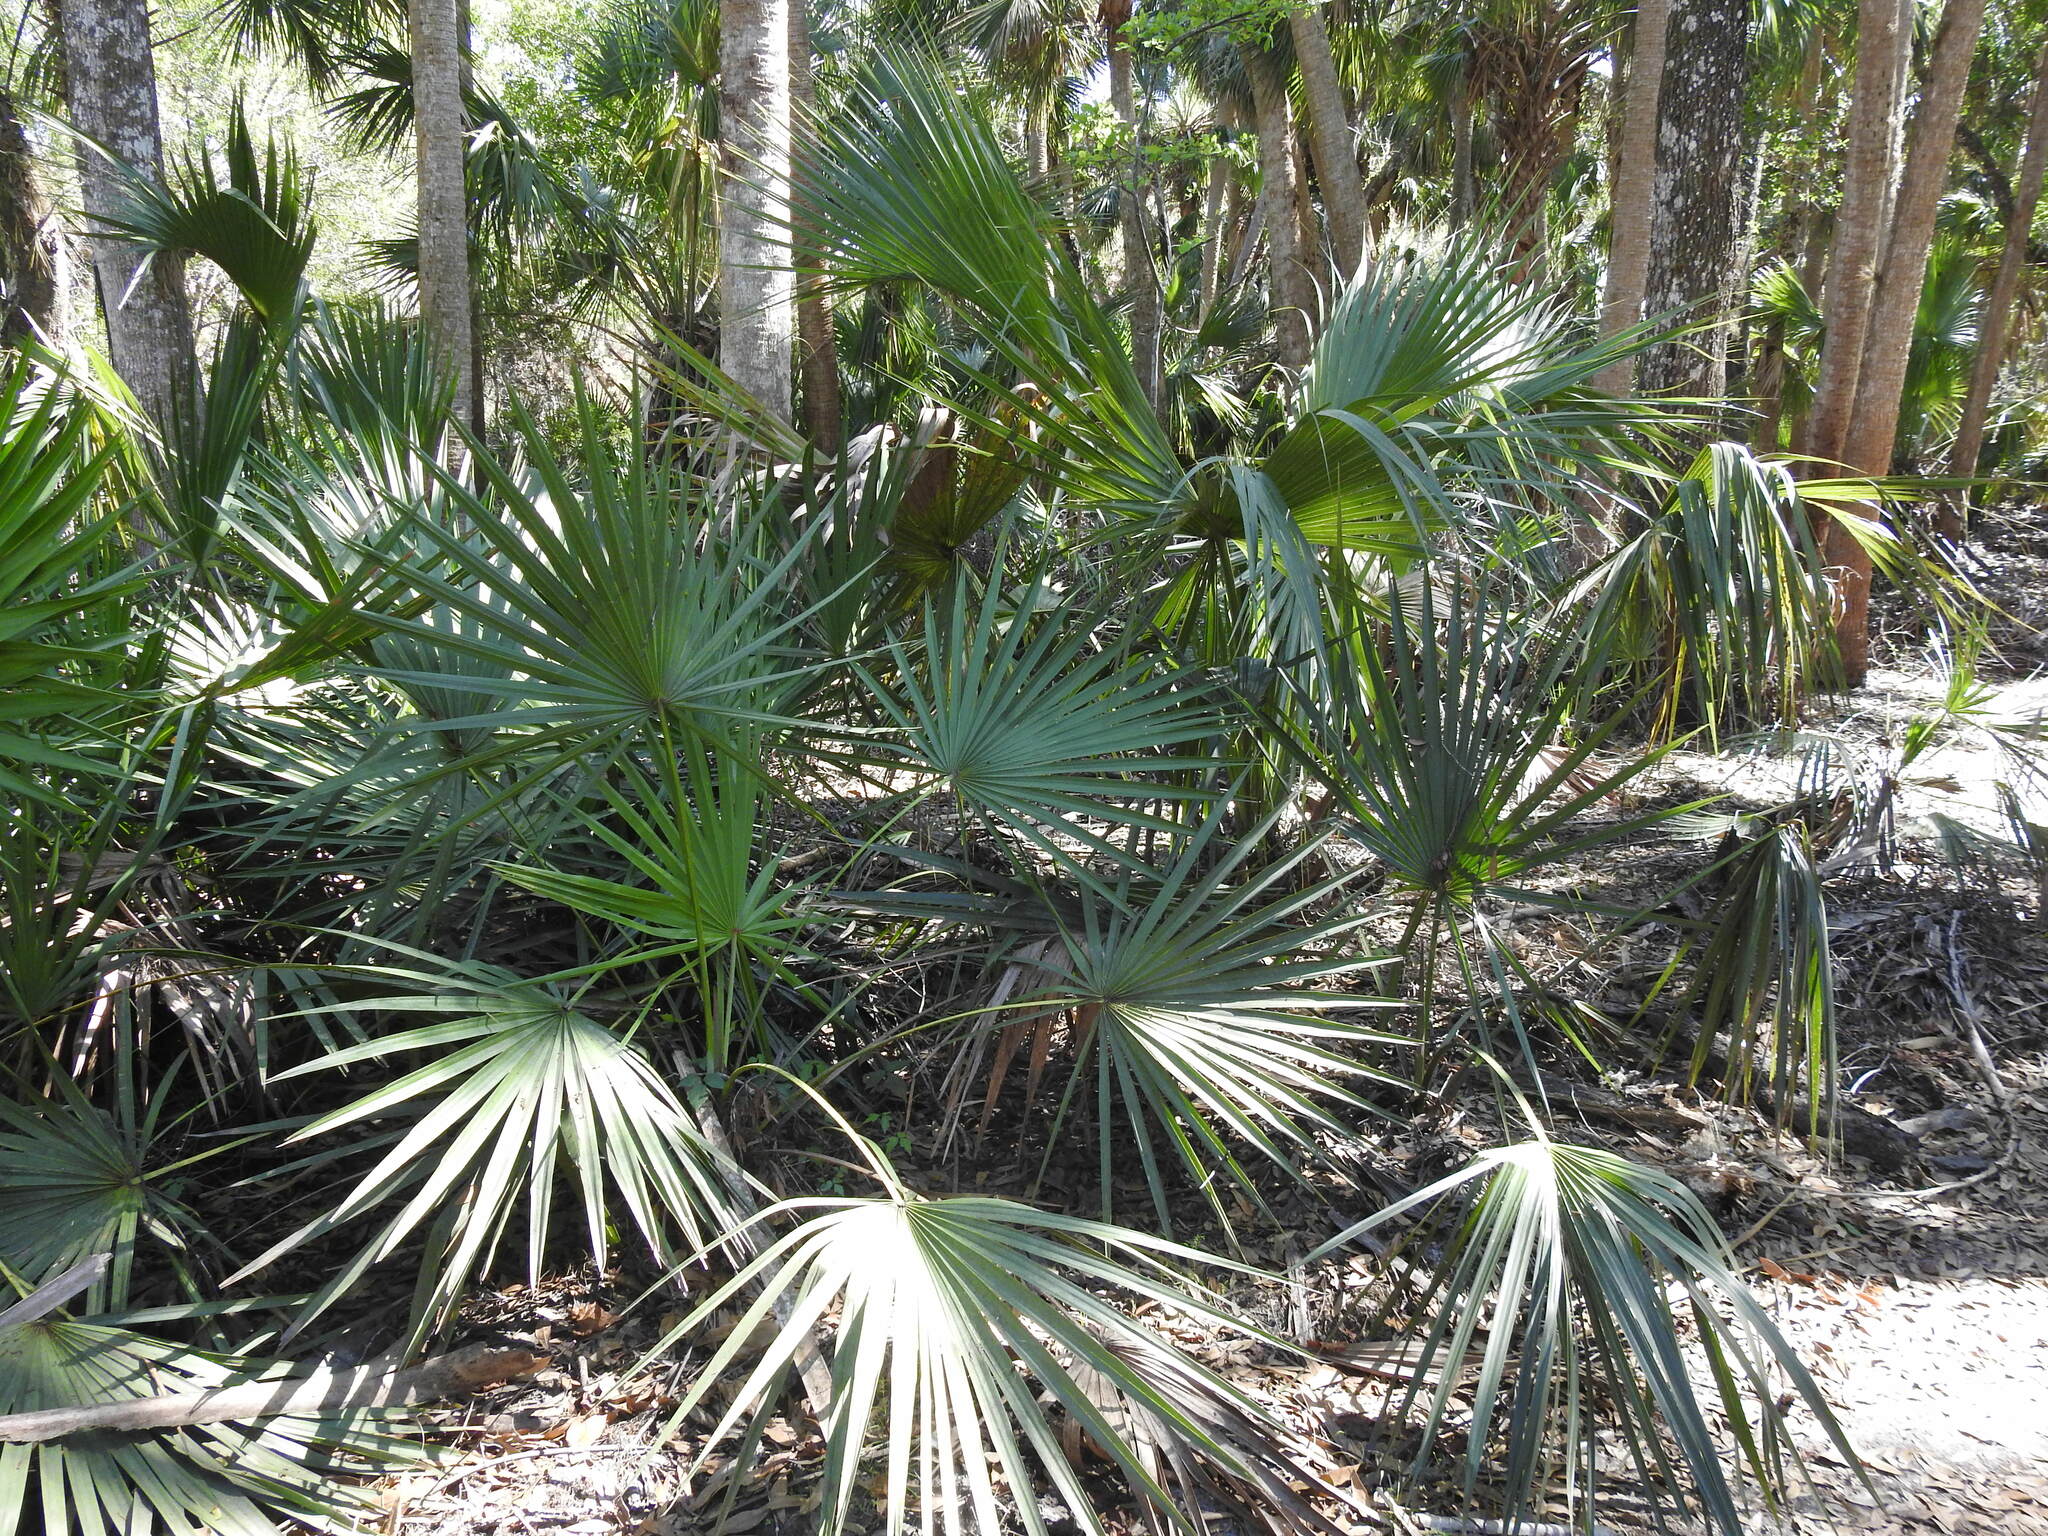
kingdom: Plantae
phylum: Tracheophyta
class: Liliopsida
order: Arecales
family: Arecaceae
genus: Serenoa
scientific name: Serenoa repens
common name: Saw-palmetto
